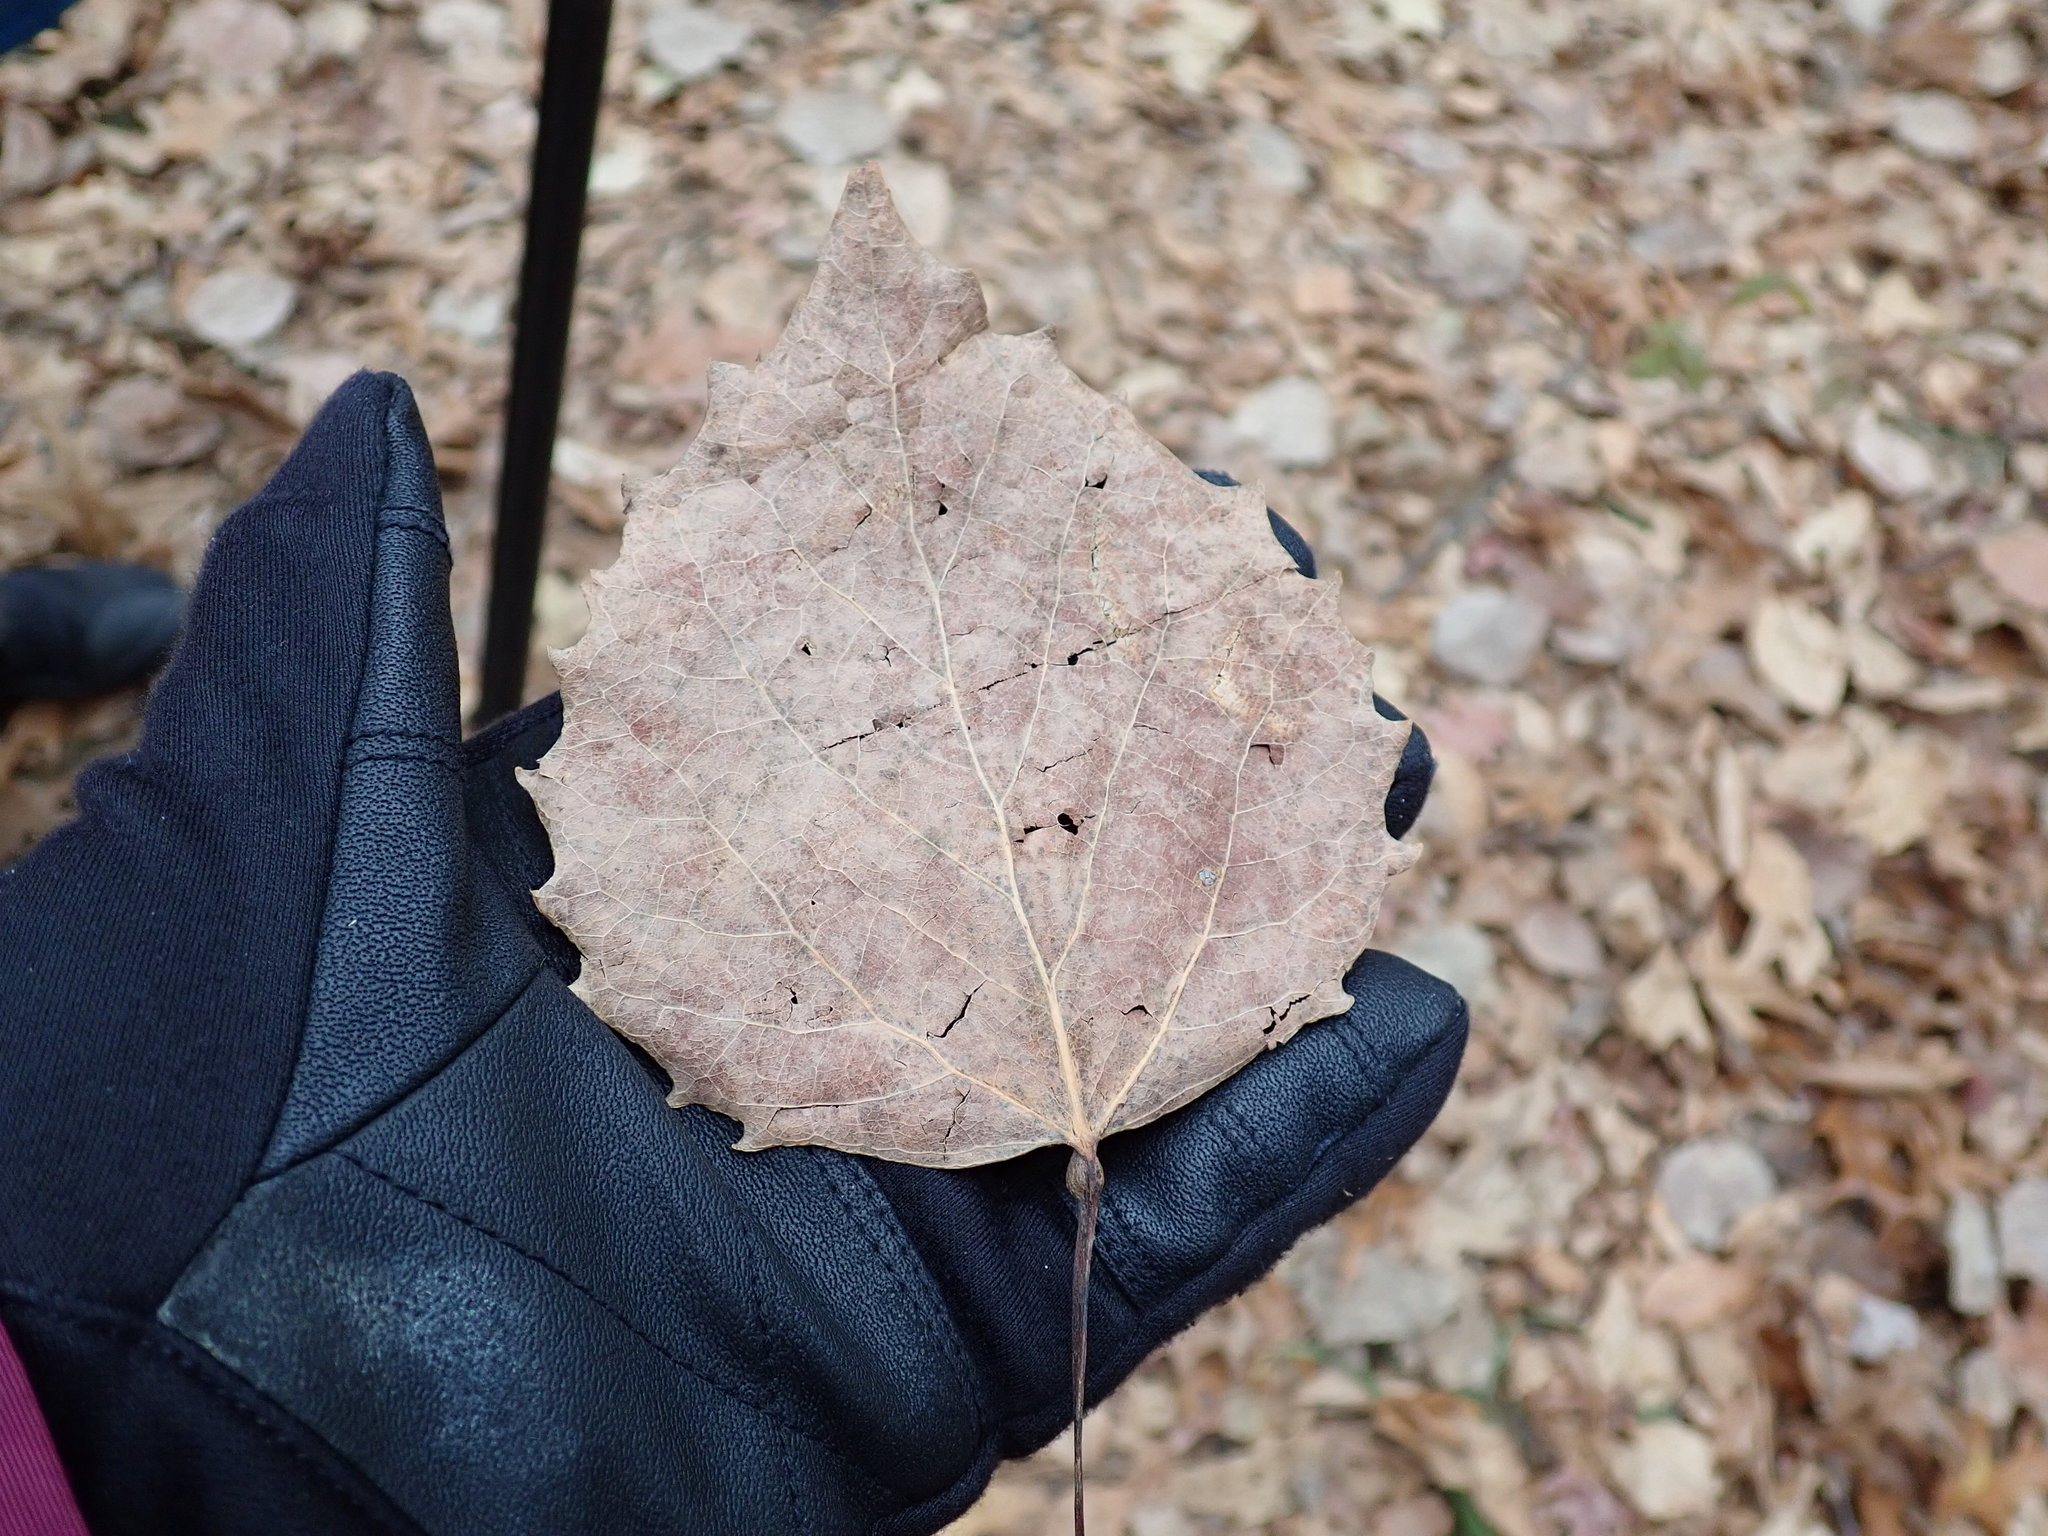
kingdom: Plantae
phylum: Tracheophyta
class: Magnoliopsida
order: Malpighiales
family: Salicaceae
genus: Populus
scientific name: Populus grandidentata
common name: Bigtooth aspen
